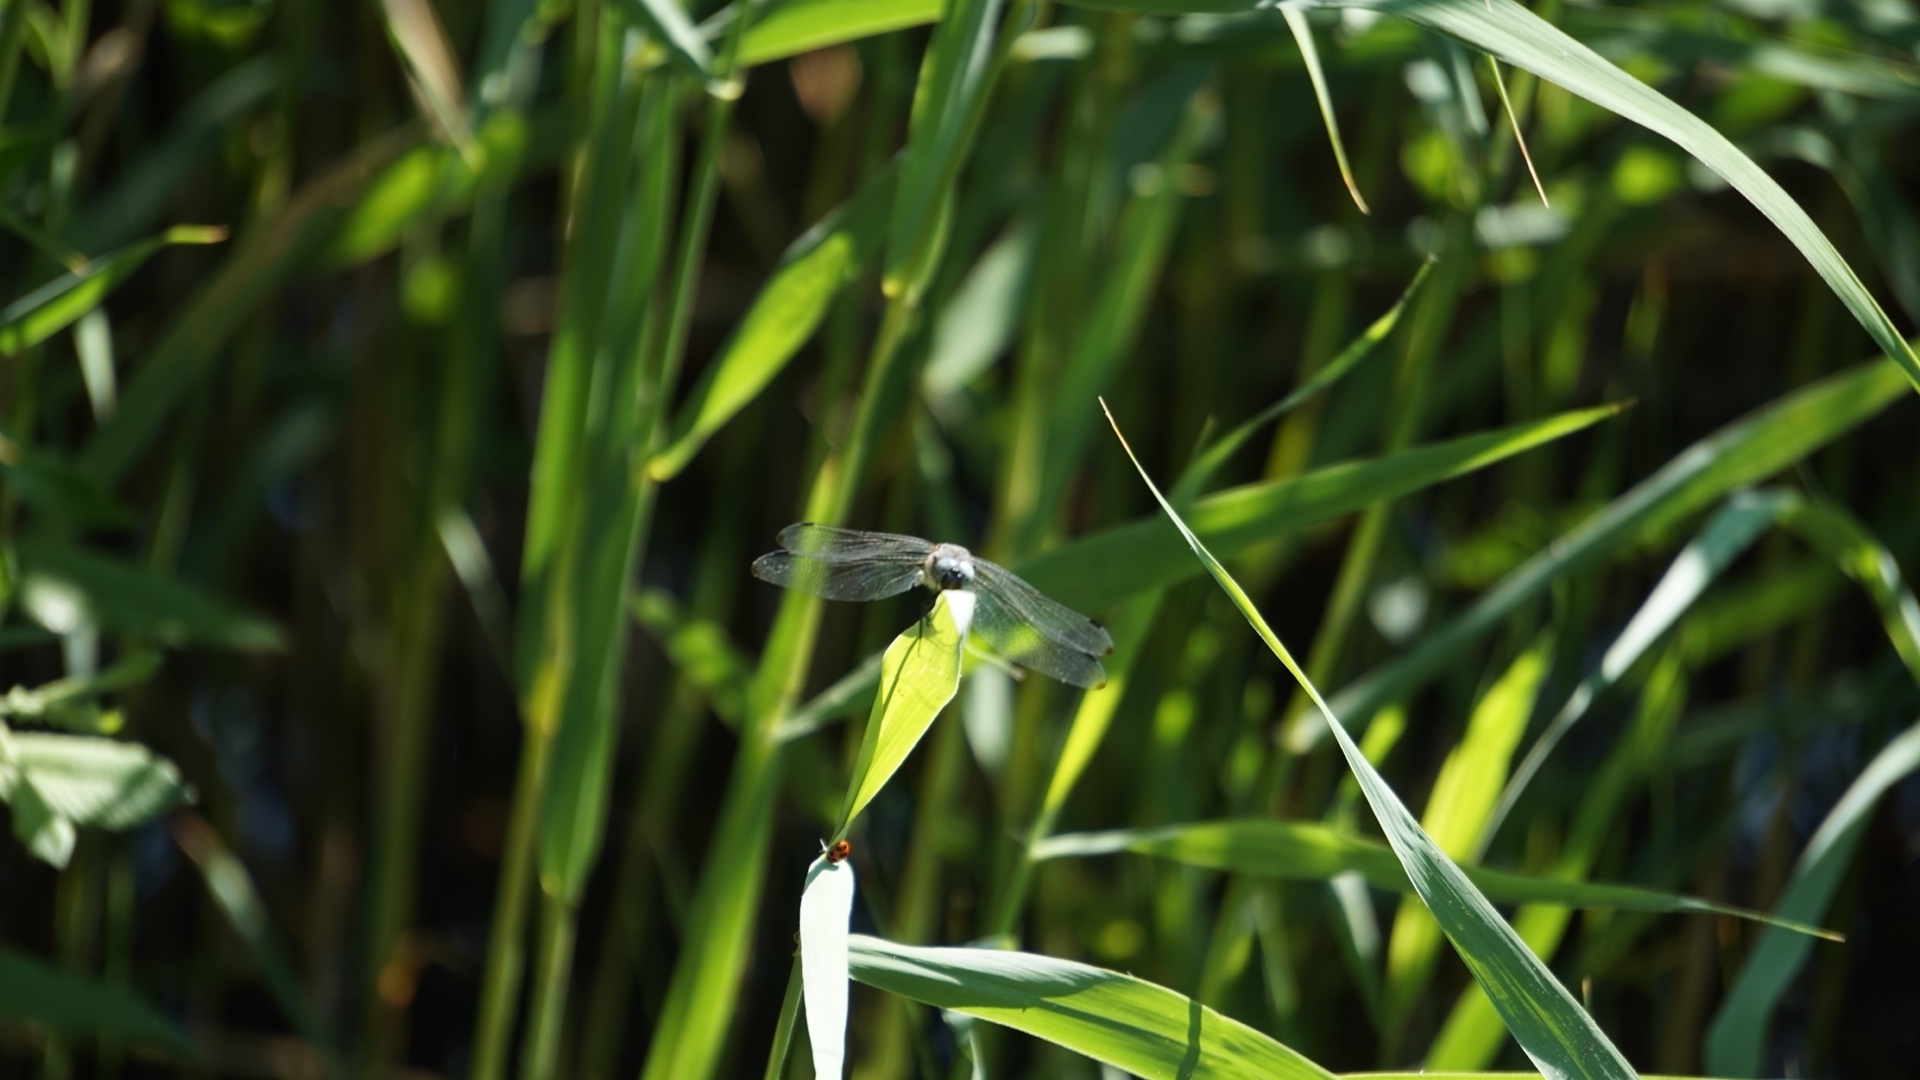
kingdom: Animalia
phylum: Arthropoda
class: Insecta
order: Odonata
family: Libellulidae
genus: Libellula
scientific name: Libellula fulva
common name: Blue chaser
